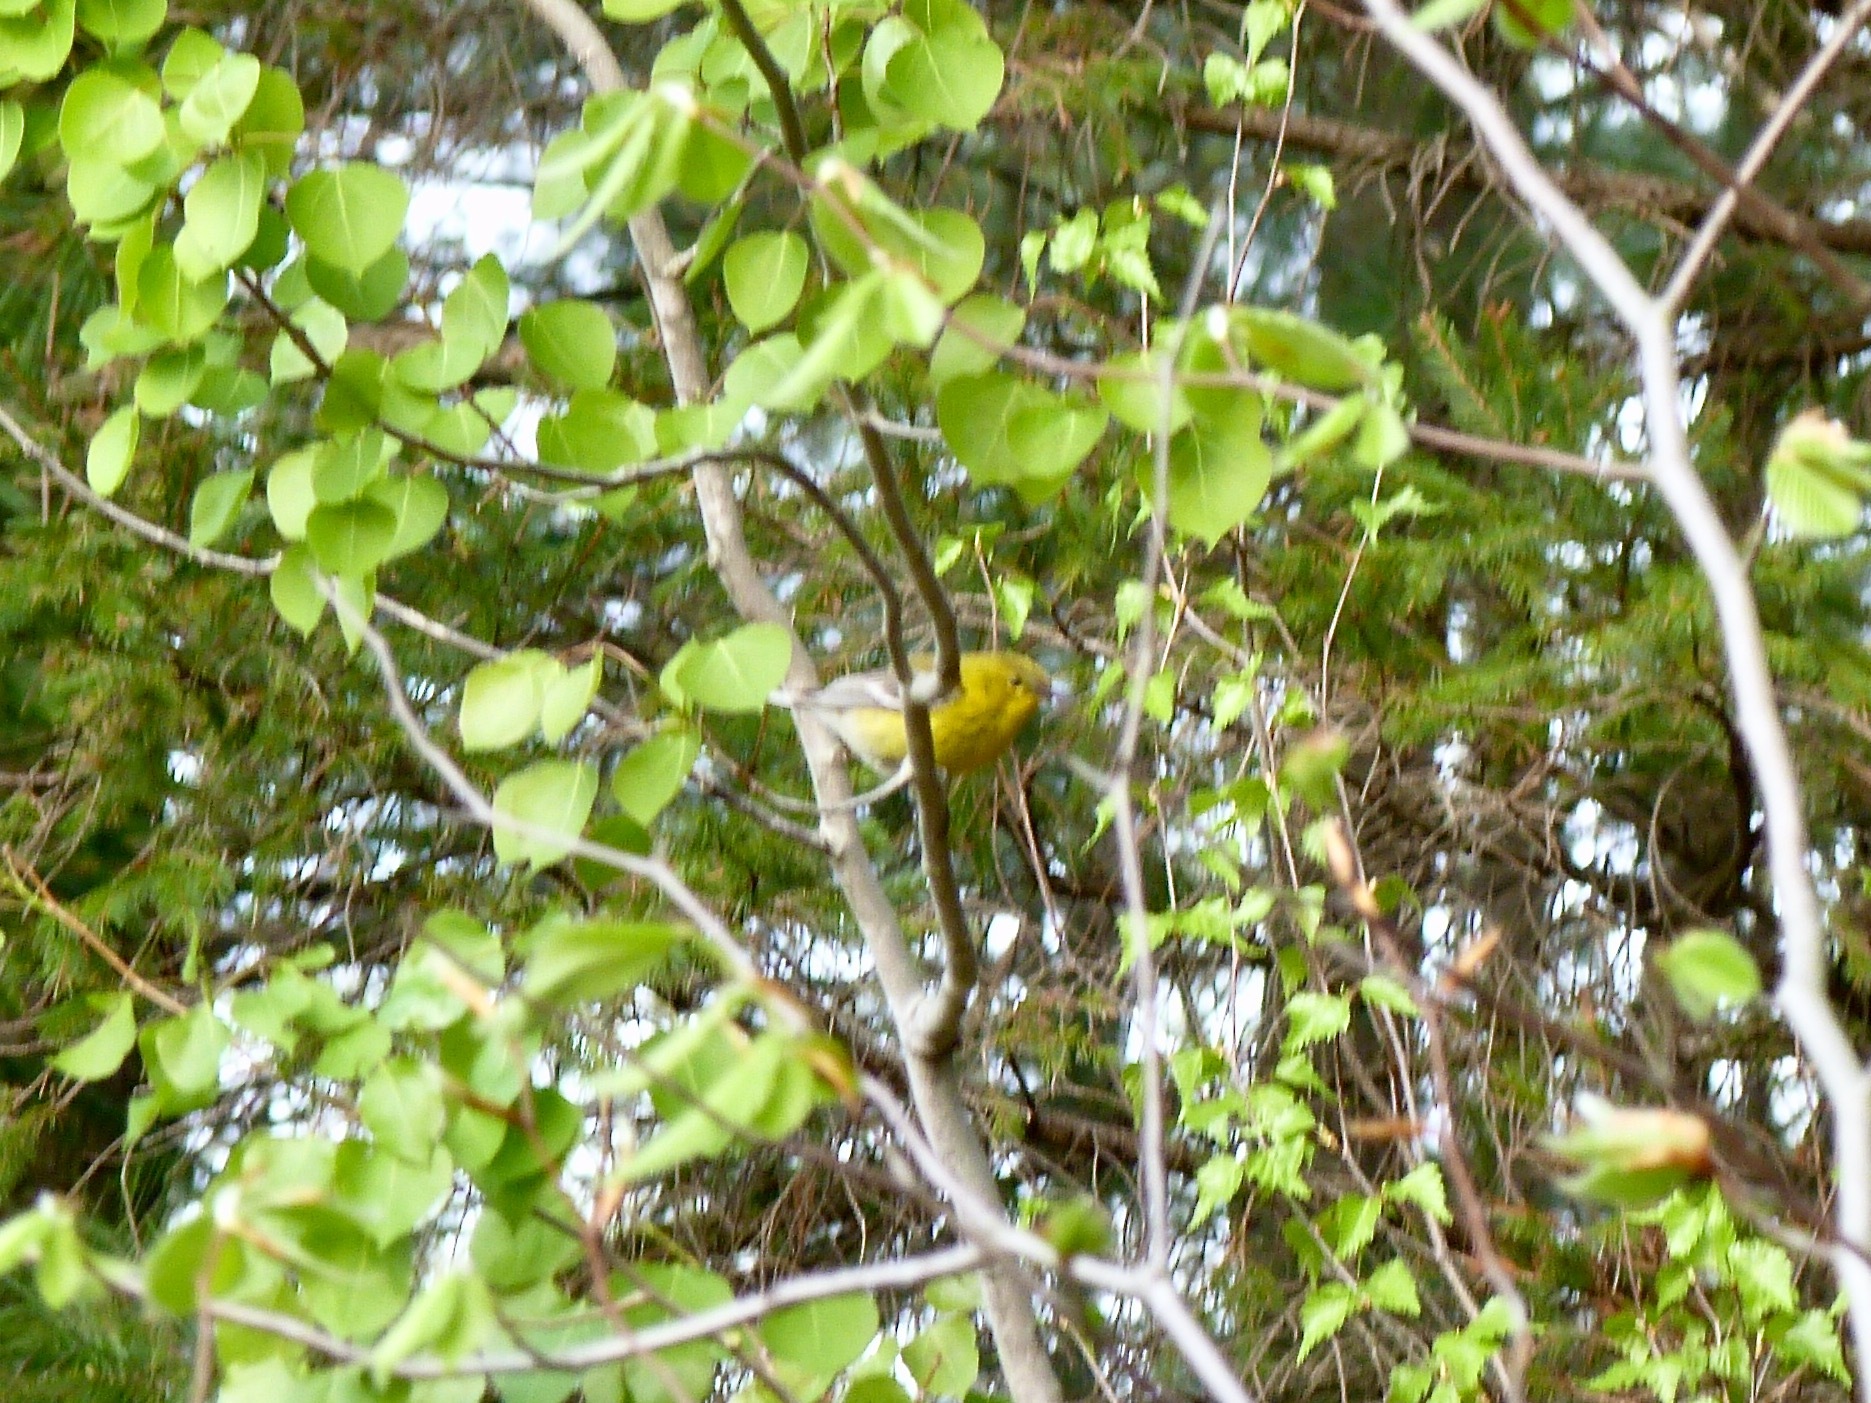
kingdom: Animalia
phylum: Chordata
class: Aves
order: Passeriformes
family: Parulidae
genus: Setophaga
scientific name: Setophaga pinus
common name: Pine warbler
